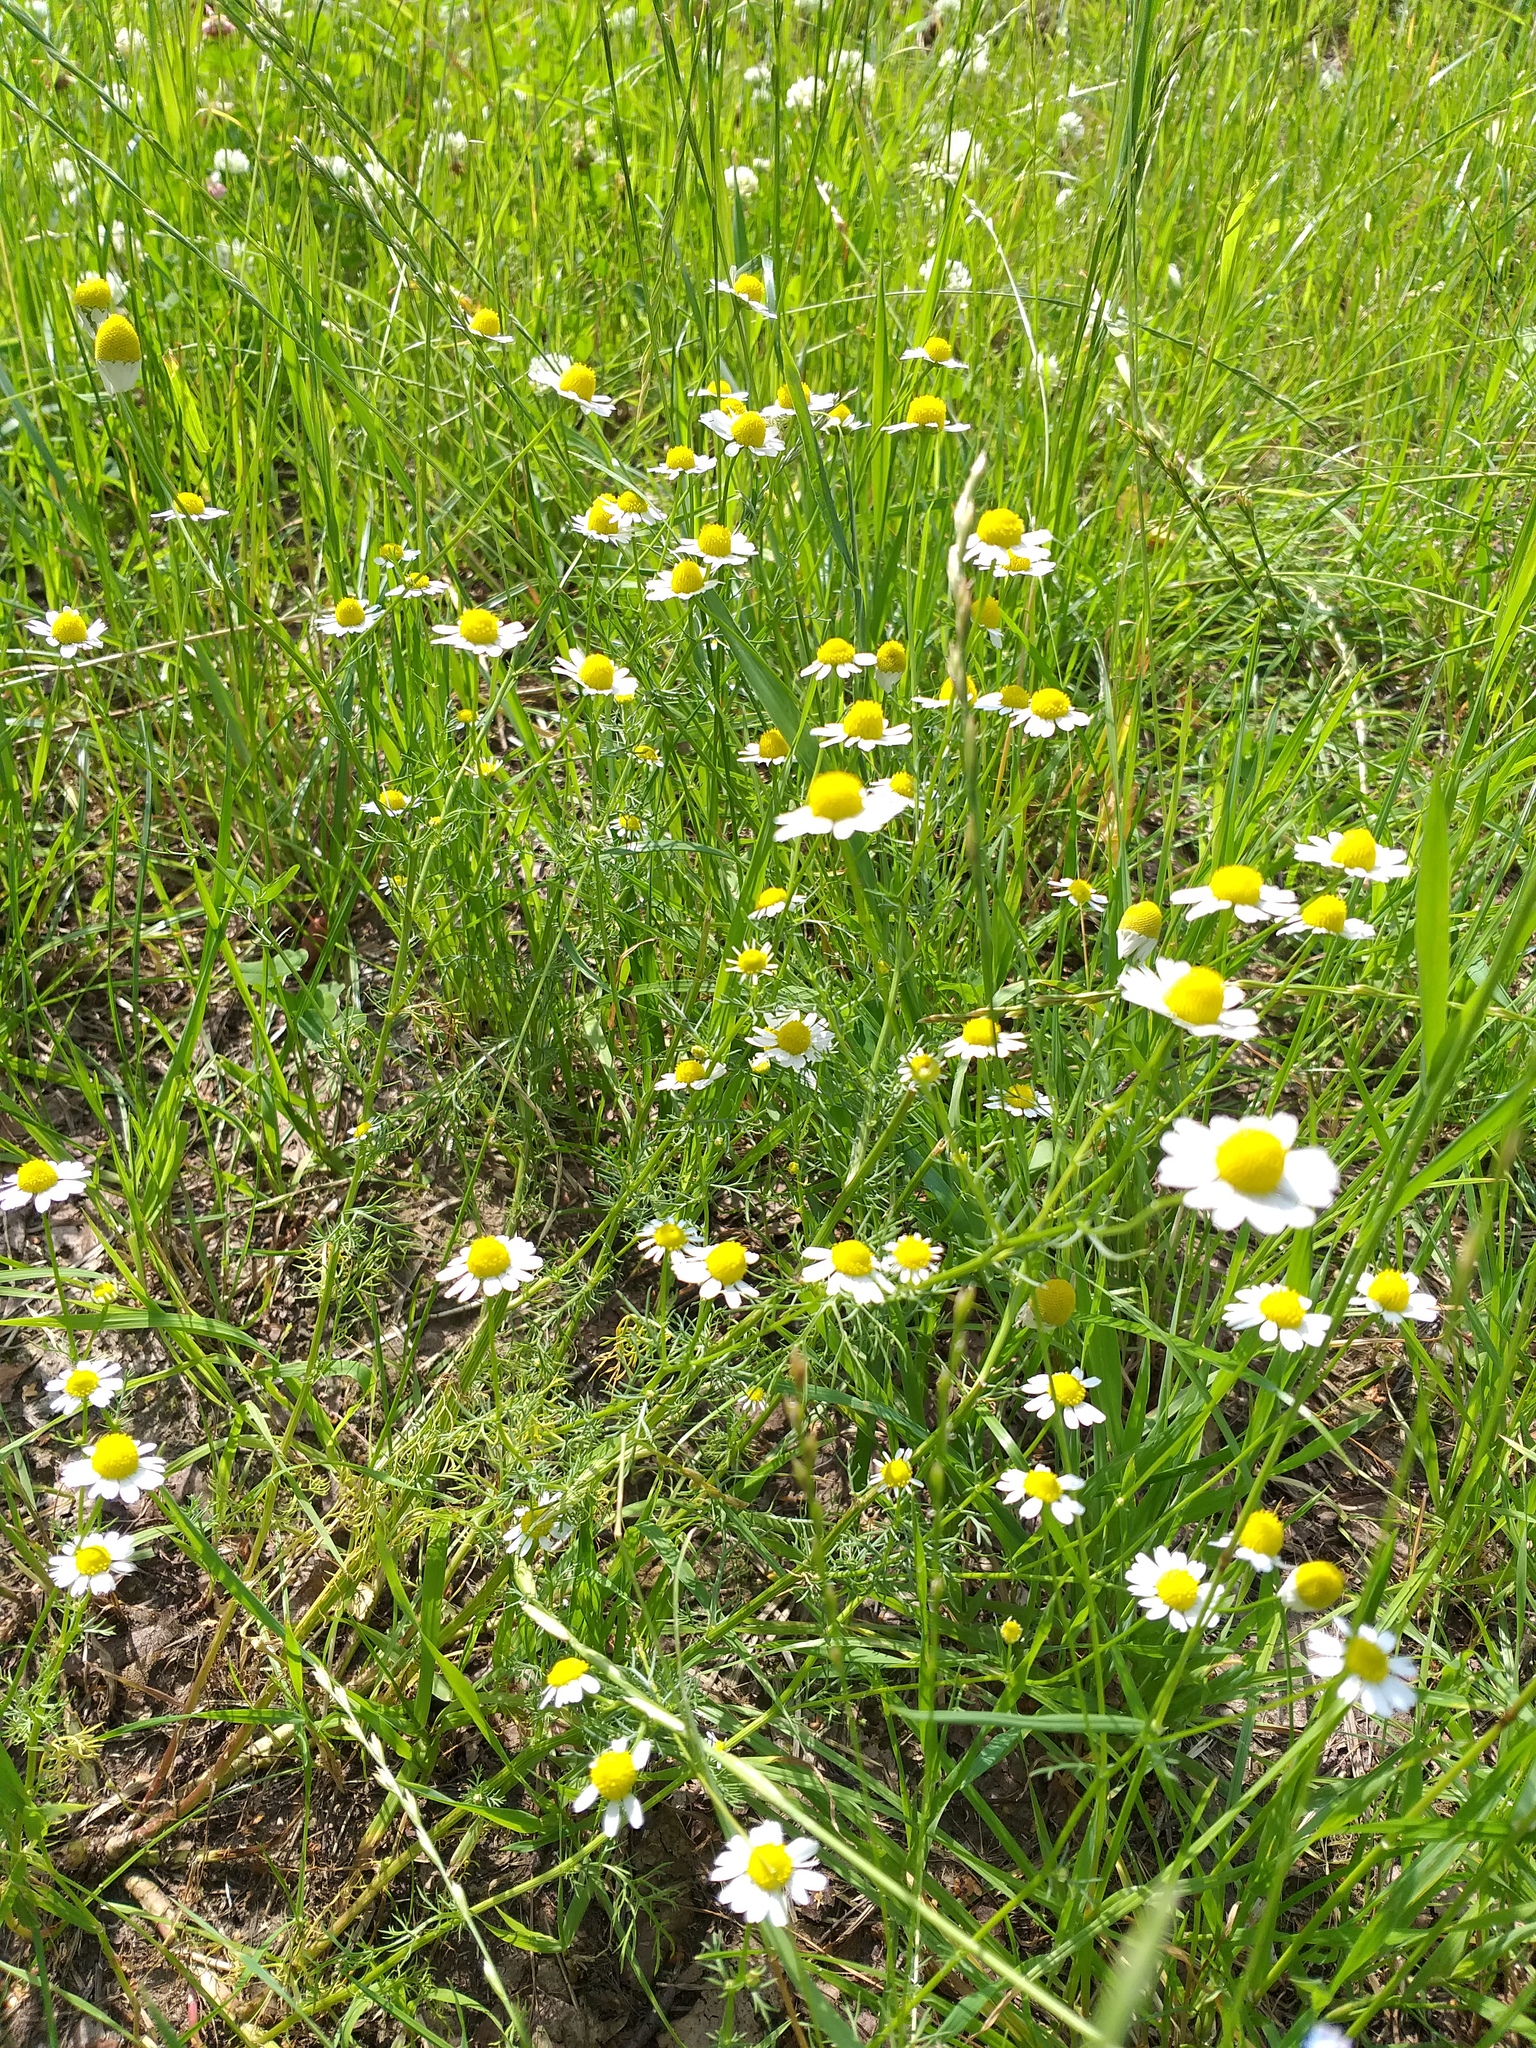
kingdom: Plantae
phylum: Tracheophyta
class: Magnoliopsida
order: Asterales
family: Asteraceae
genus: Matricaria
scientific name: Matricaria chamomilla
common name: Scented mayweed
